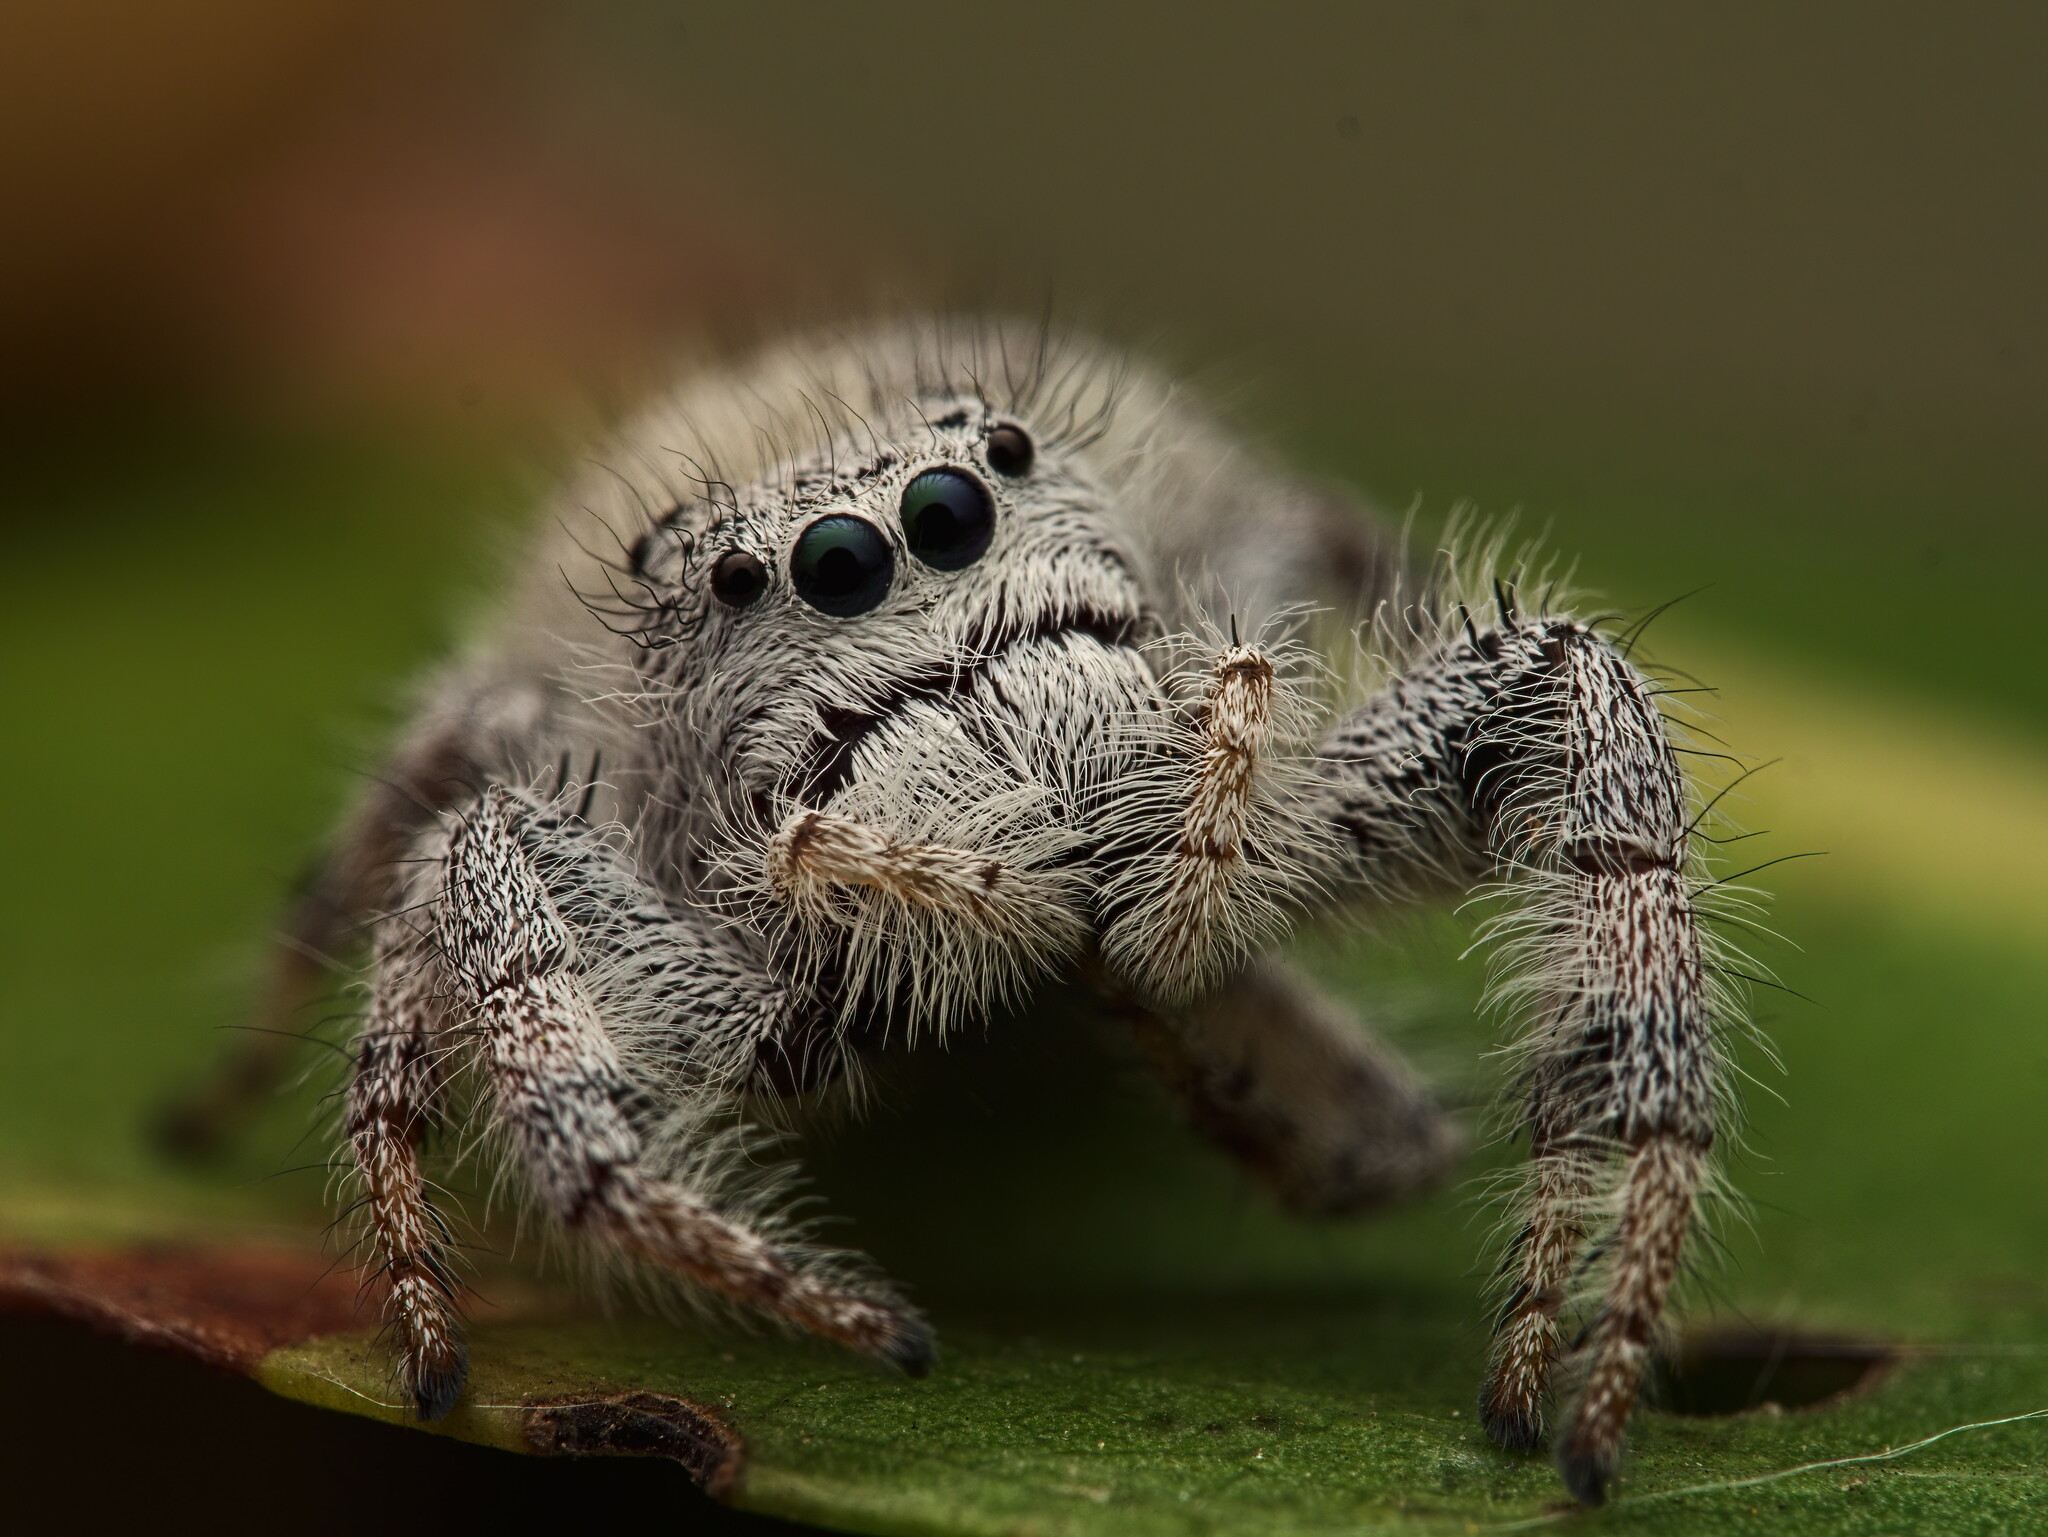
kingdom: Animalia
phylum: Arthropoda
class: Arachnida
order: Araneae
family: Salticidae
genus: Paraphidippus
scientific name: Paraphidippus fartilis
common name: Jumping spiders
